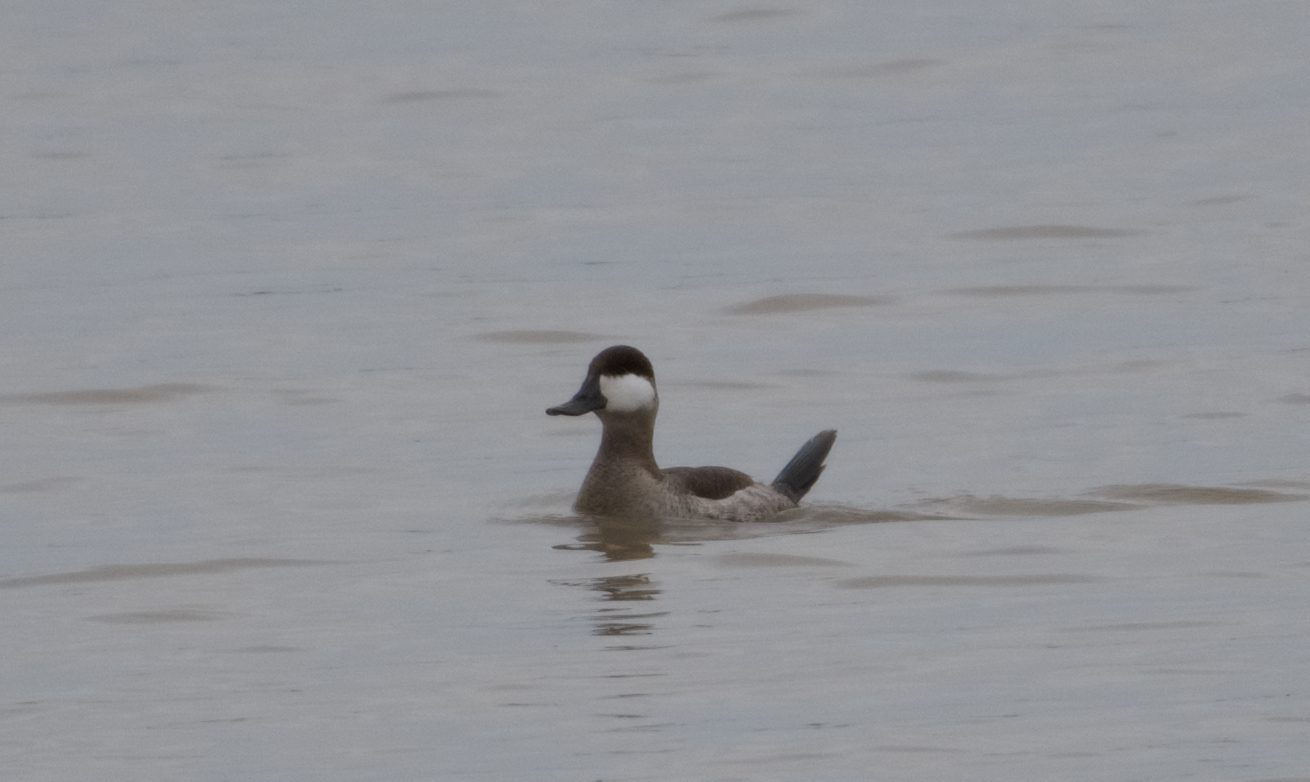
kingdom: Animalia
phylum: Chordata
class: Aves
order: Anseriformes
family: Anatidae
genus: Oxyura
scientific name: Oxyura jamaicensis
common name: Ruddy duck
